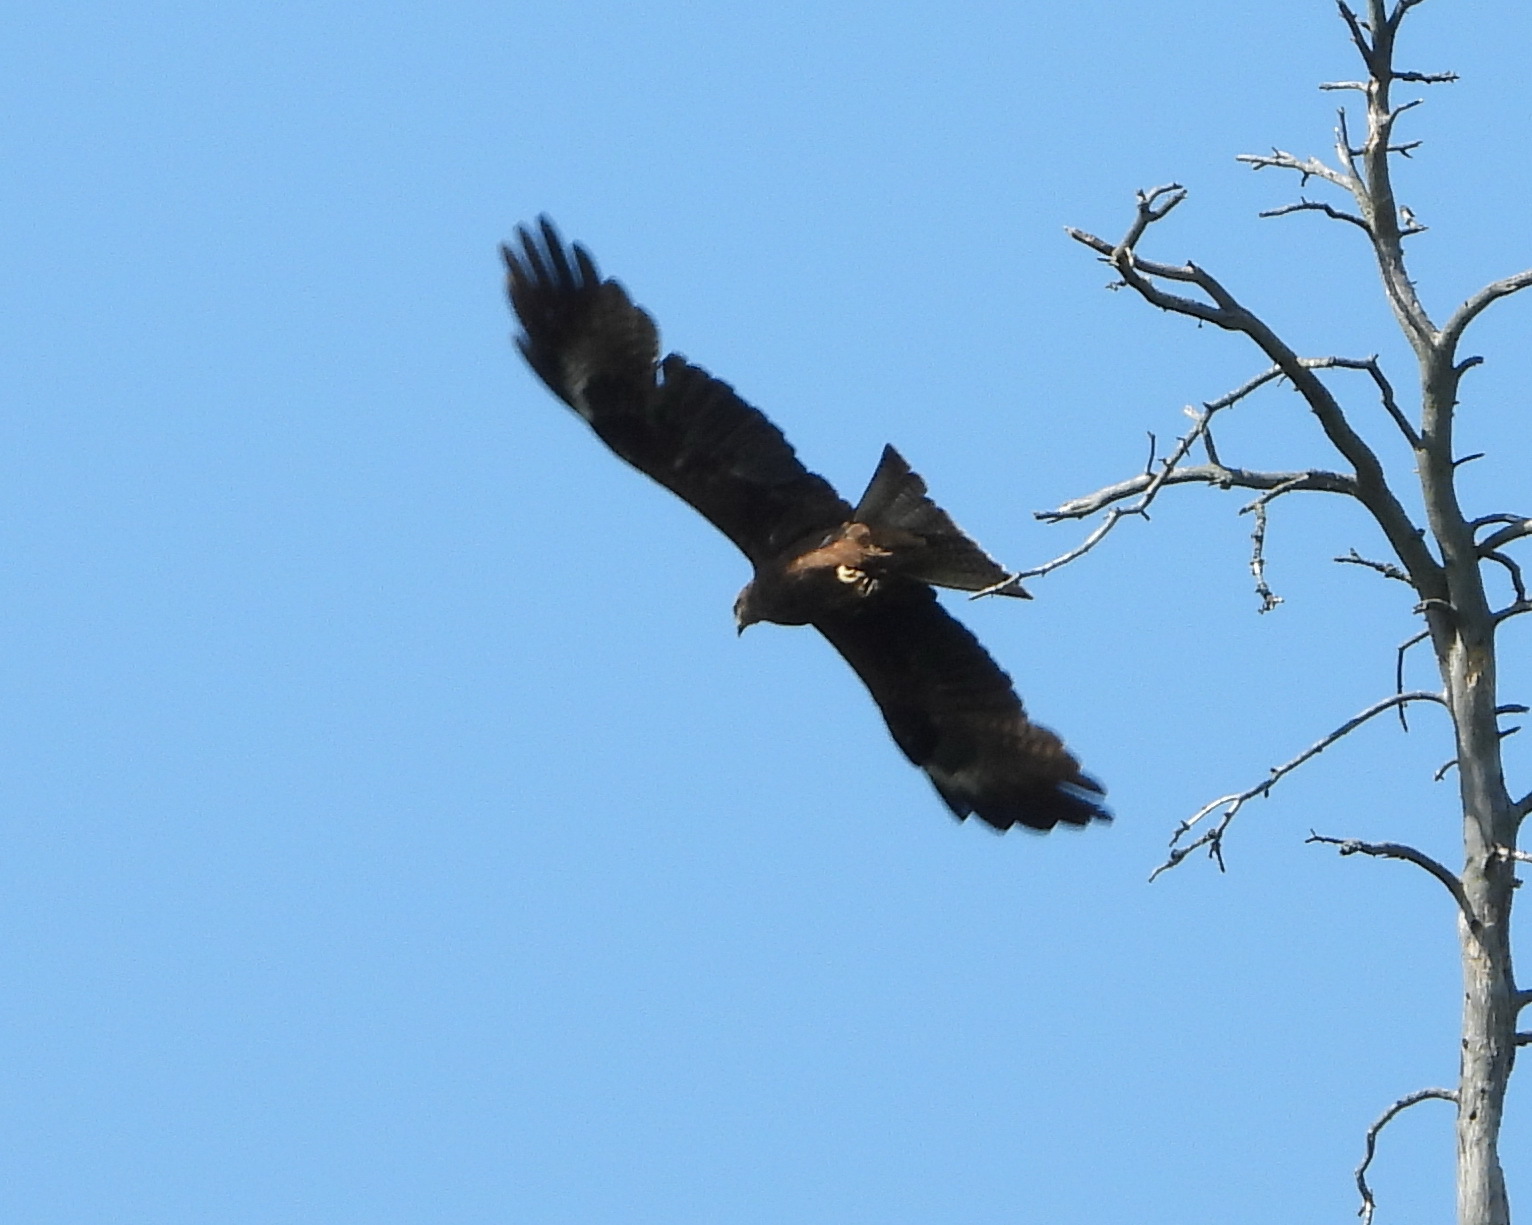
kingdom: Animalia
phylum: Chordata
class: Aves
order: Accipitriformes
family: Accipitridae
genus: Milvus
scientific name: Milvus migrans
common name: Black kite
